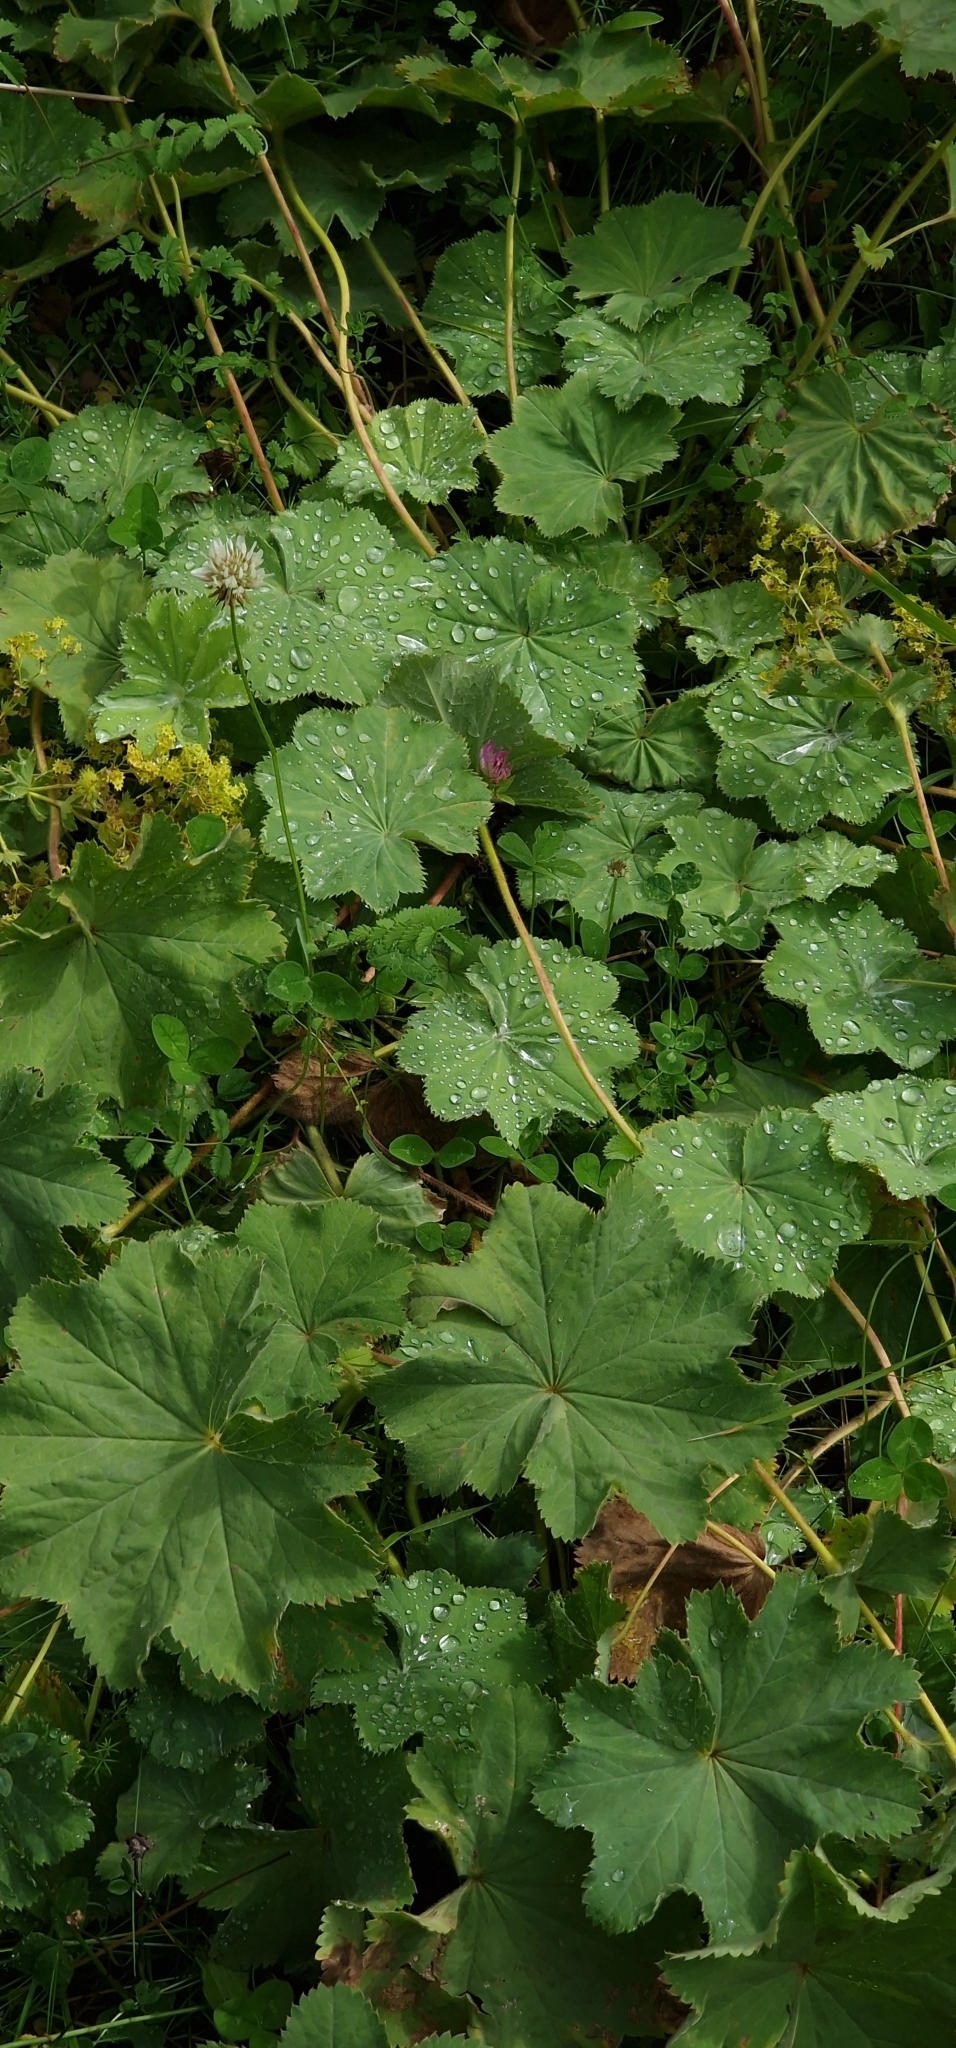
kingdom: Plantae
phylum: Tracheophyta
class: Magnoliopsida
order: Rosales
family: Rosaceae
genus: Alchemilla
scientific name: Alchemilla mollis
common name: Lady's-mantle
